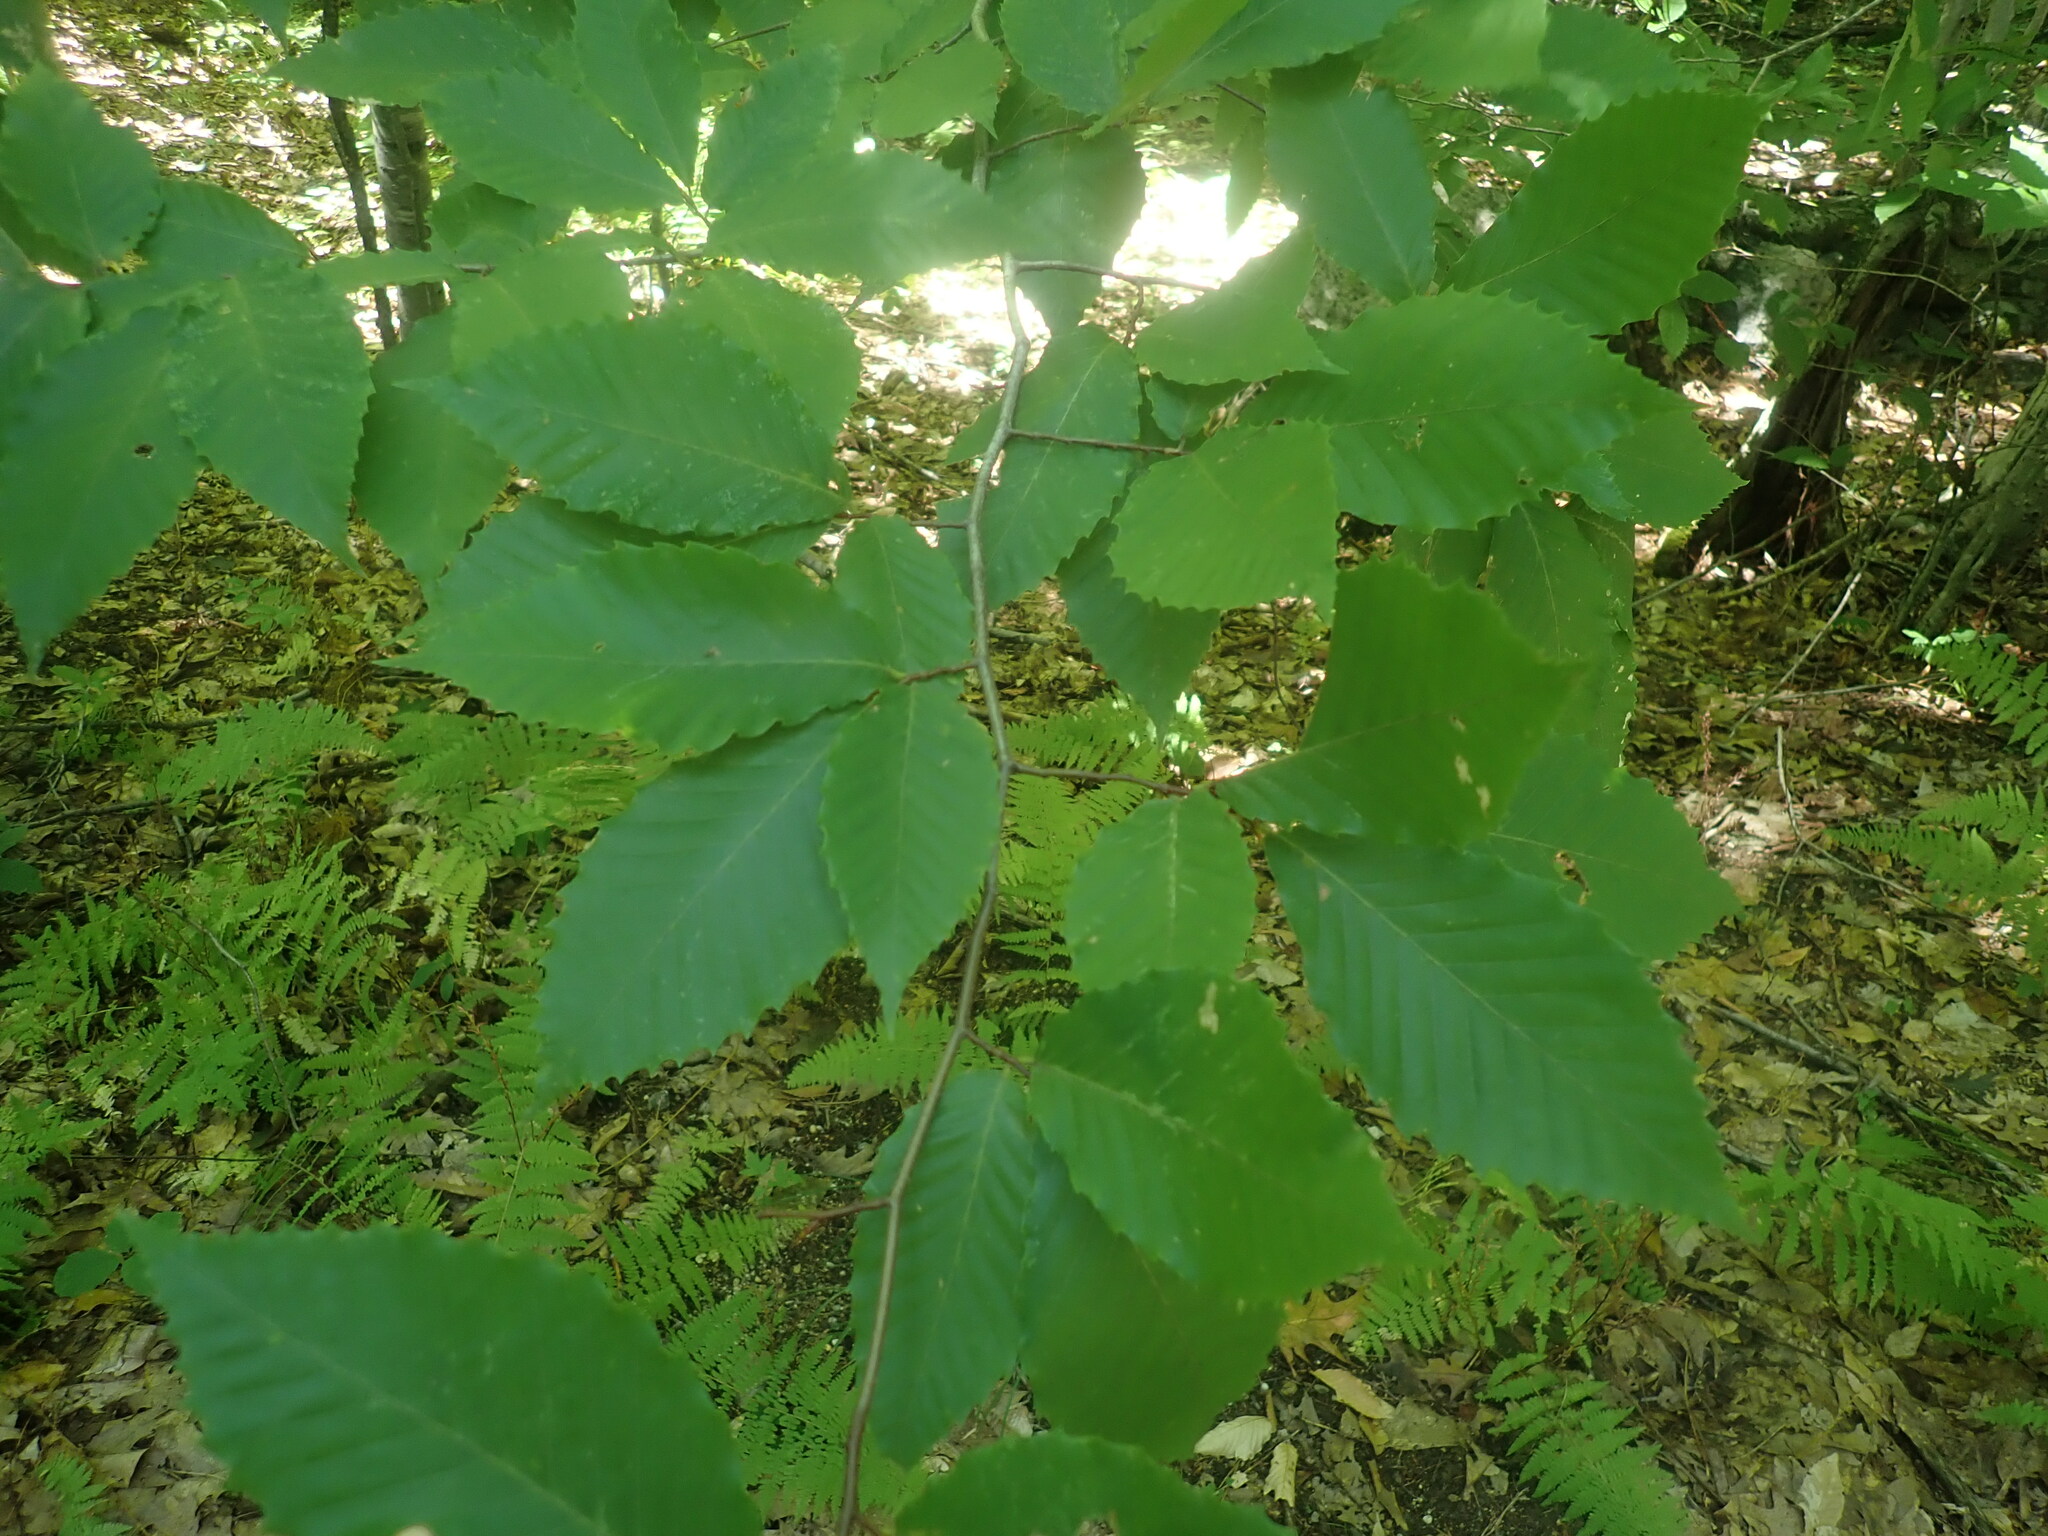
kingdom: Plantae
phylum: Tracheophyta
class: Magnoliopsida
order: Fagales
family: Fagaceae
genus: Fagus
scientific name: Fagus grandifolia
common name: American beech
